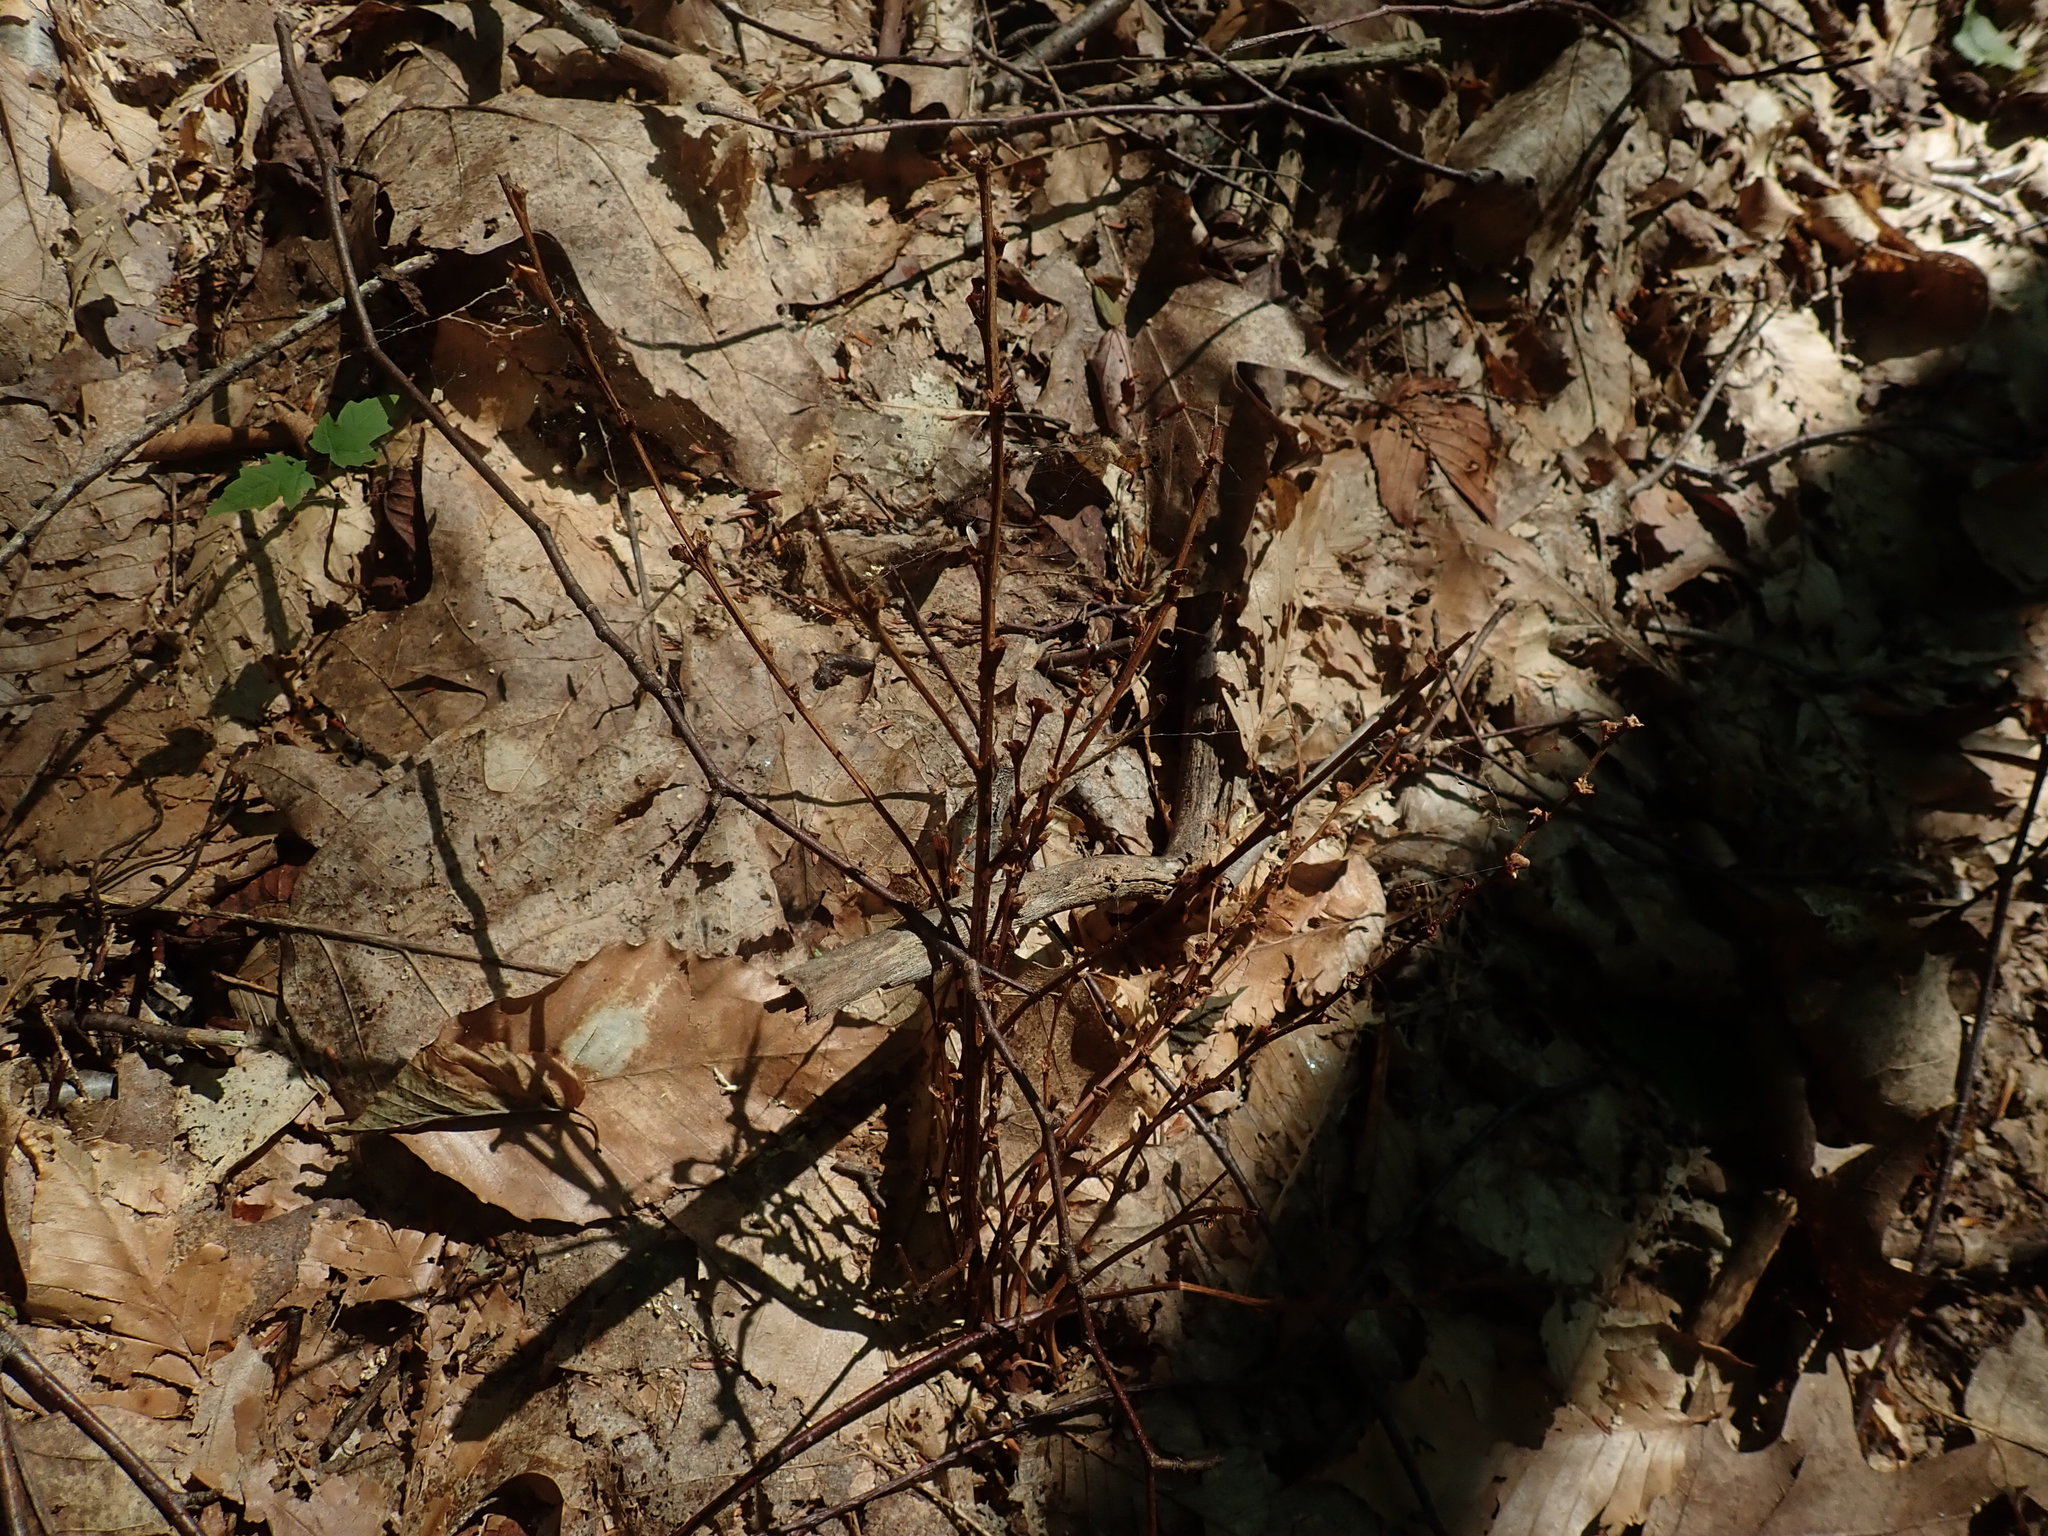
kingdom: Plantae
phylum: Tracheophyta
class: Magnoliopsida
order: Lamiales
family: Orobanchaceae
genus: Epifagus
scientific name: Epifagus virginiana
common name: Beechdrops
